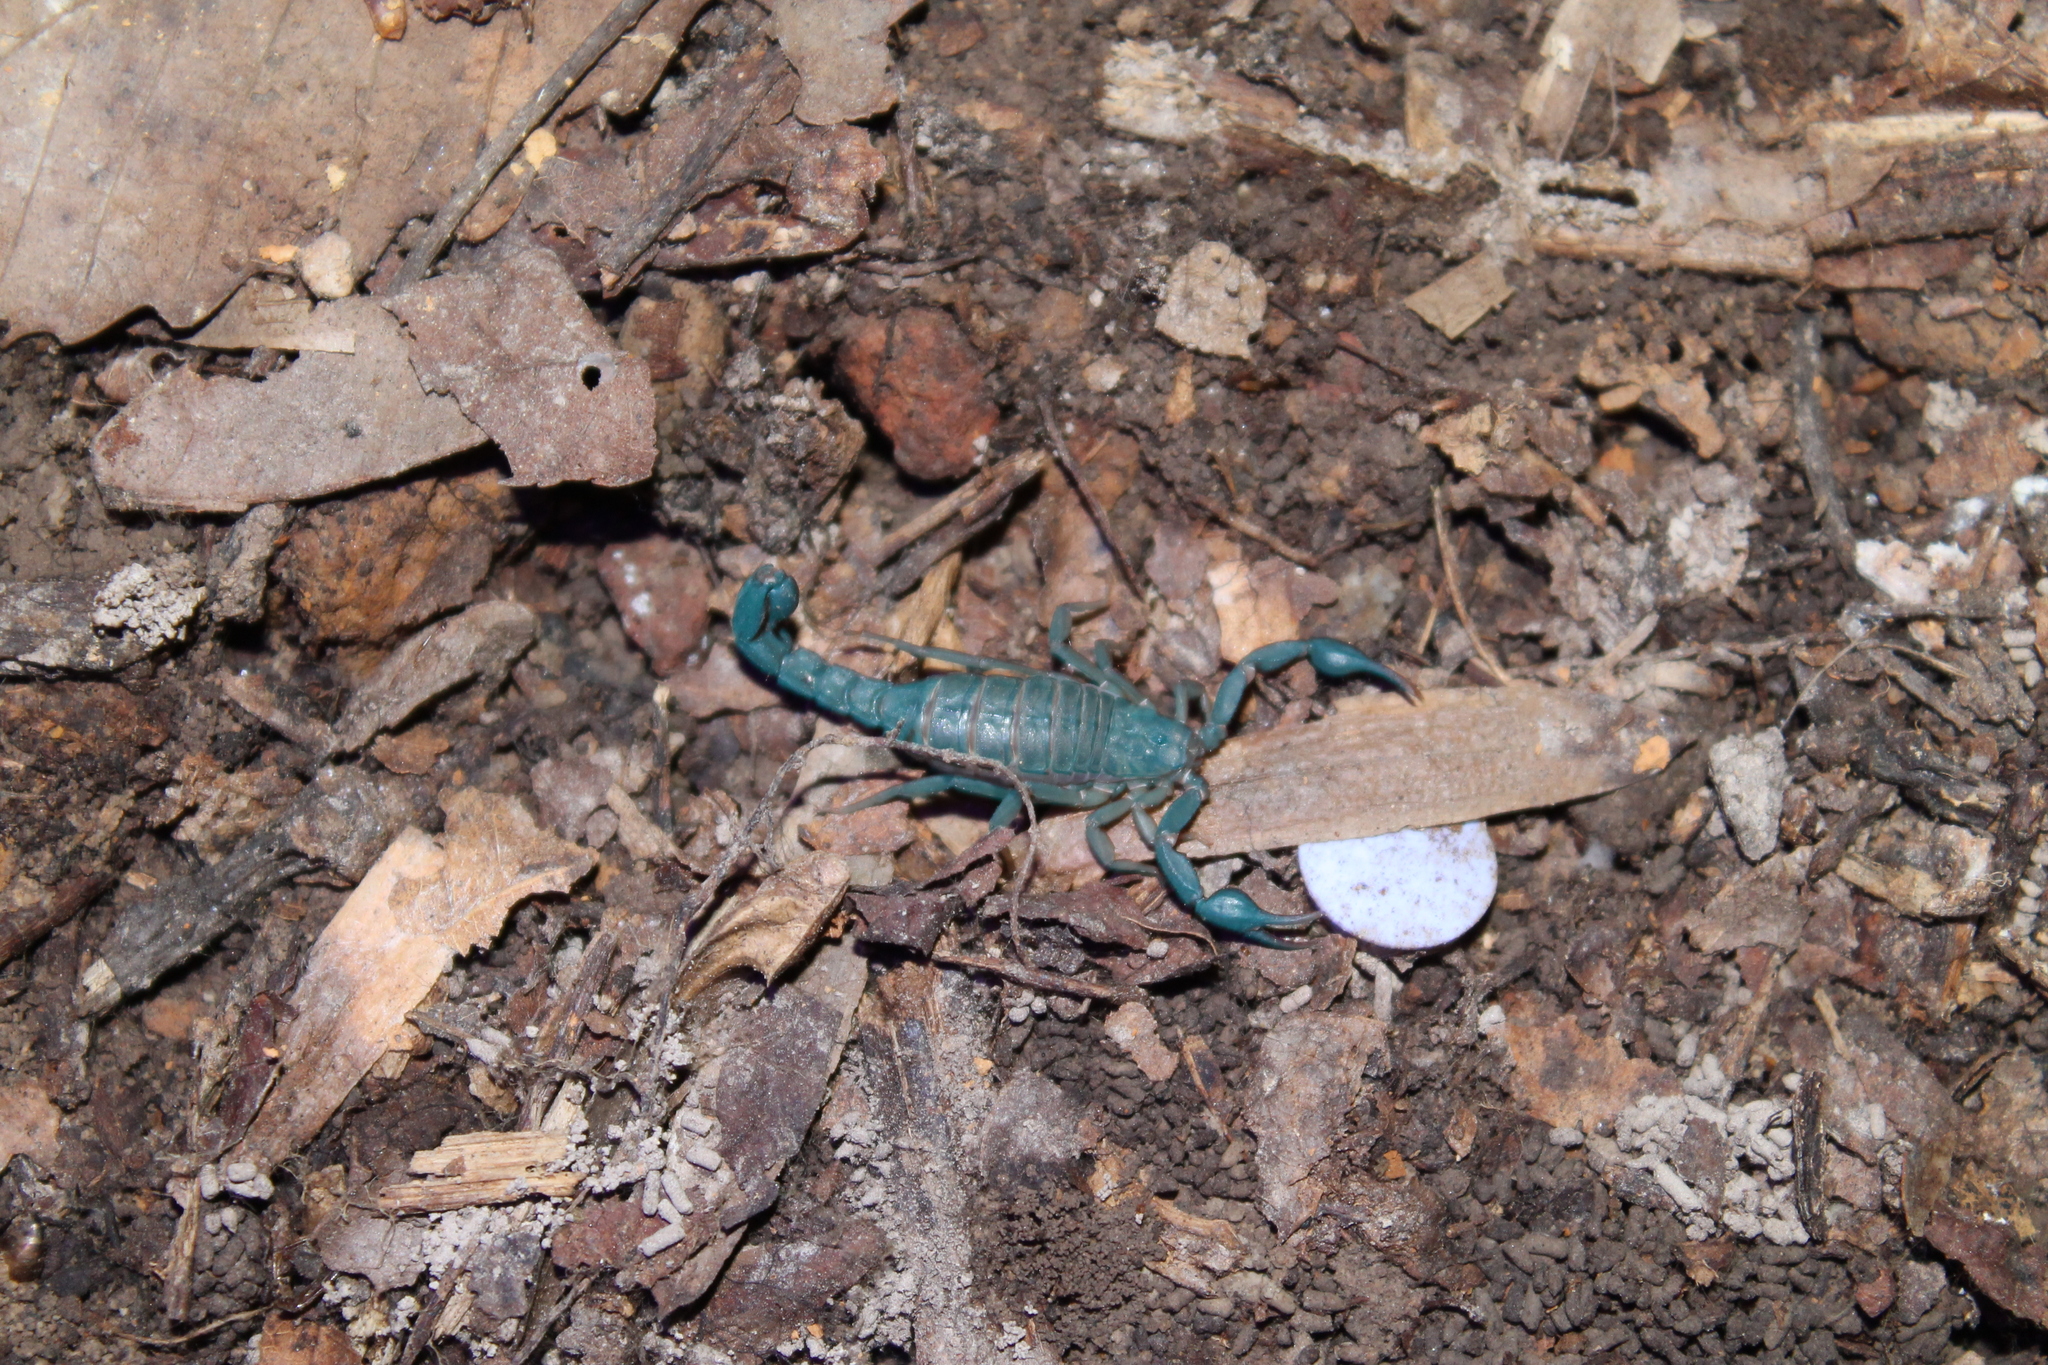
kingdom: Animalia
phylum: Arthropoda
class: Arachnida
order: Scorpiones
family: Vaejovidae
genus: Vaejovis
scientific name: Vaejovis carolinianus
